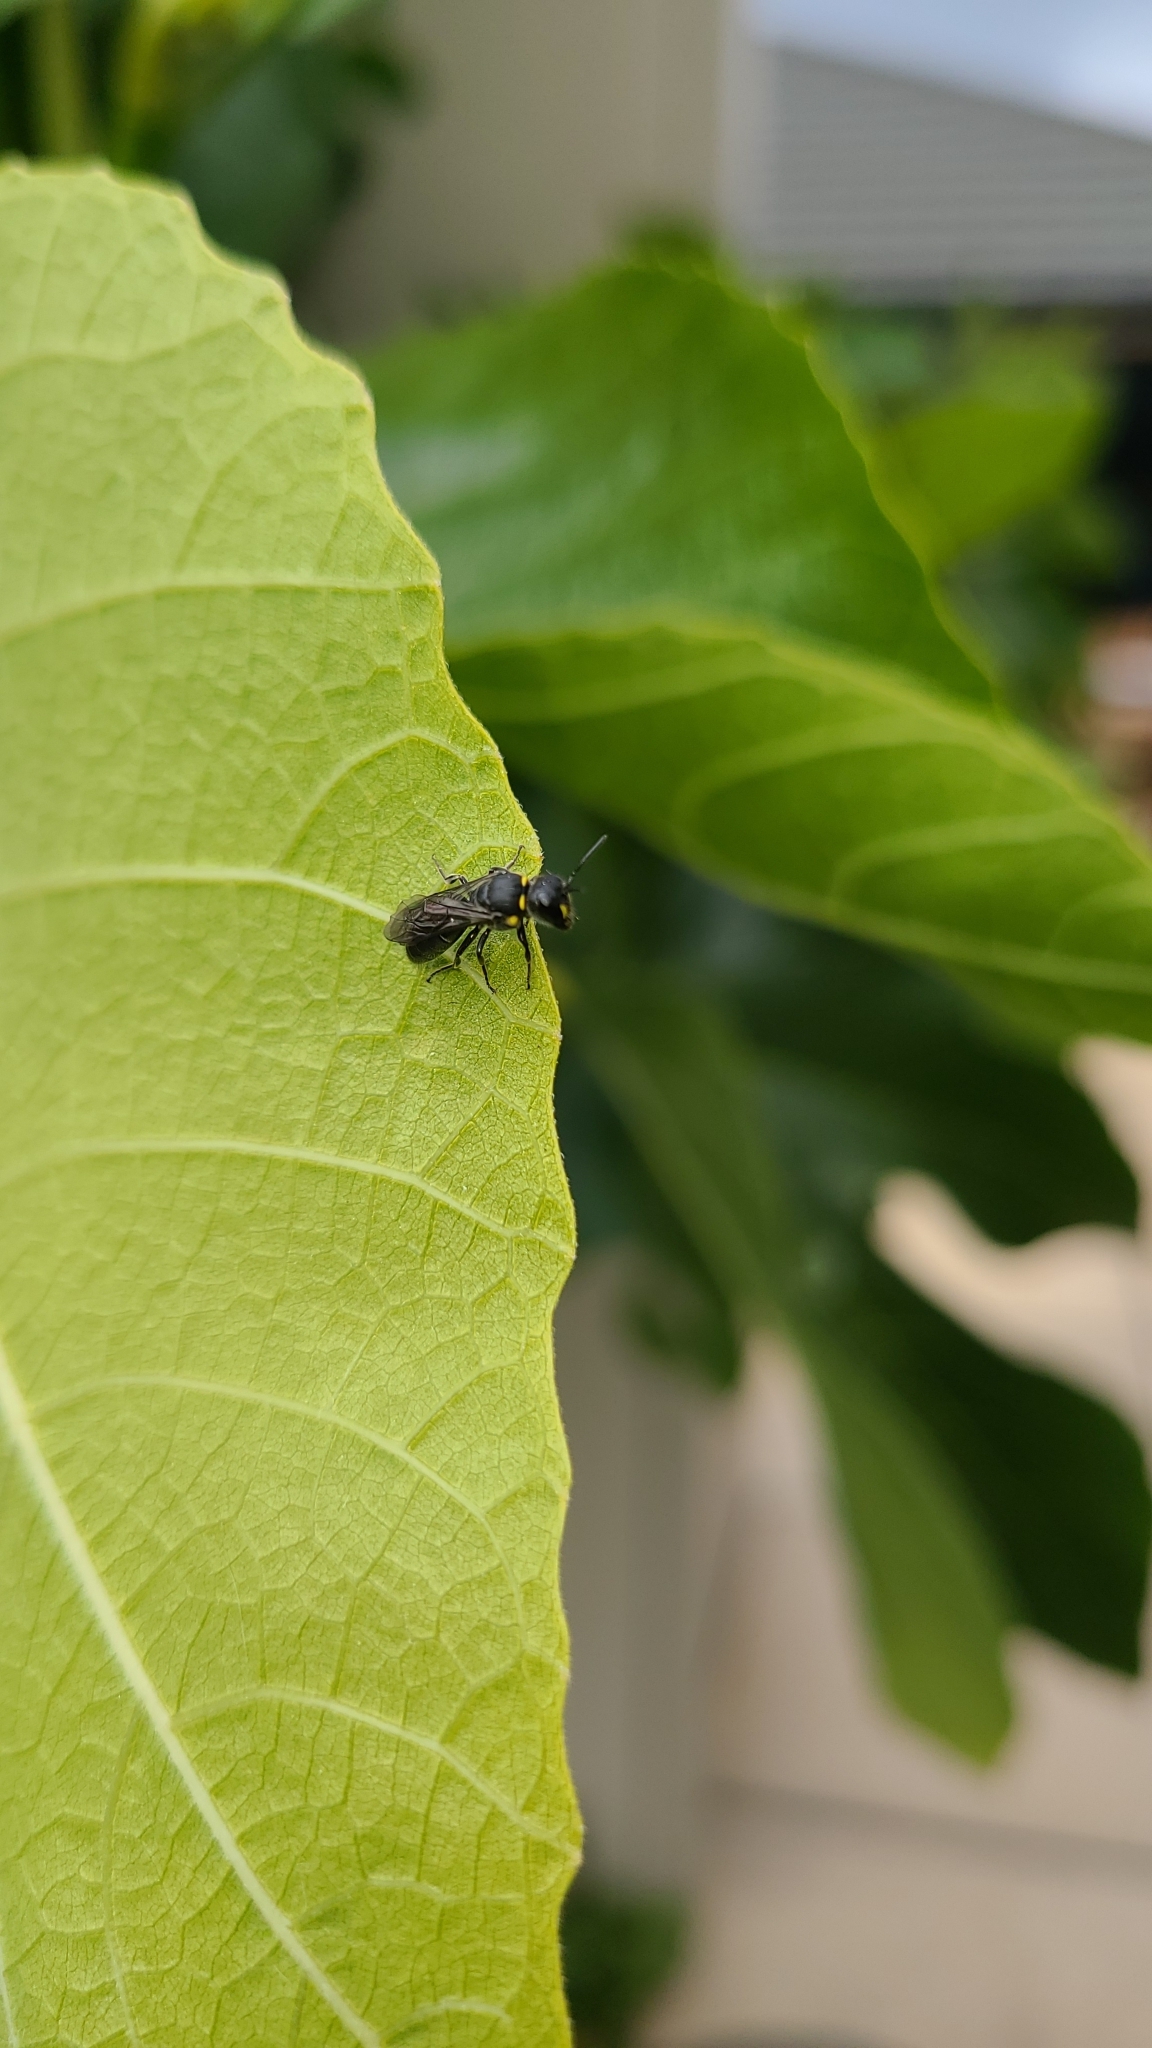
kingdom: Animalia
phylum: Arthropoda
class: Insecta
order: Hymenoptera
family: Colletidae
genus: Hylaeus
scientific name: Hylaeus relegatus
